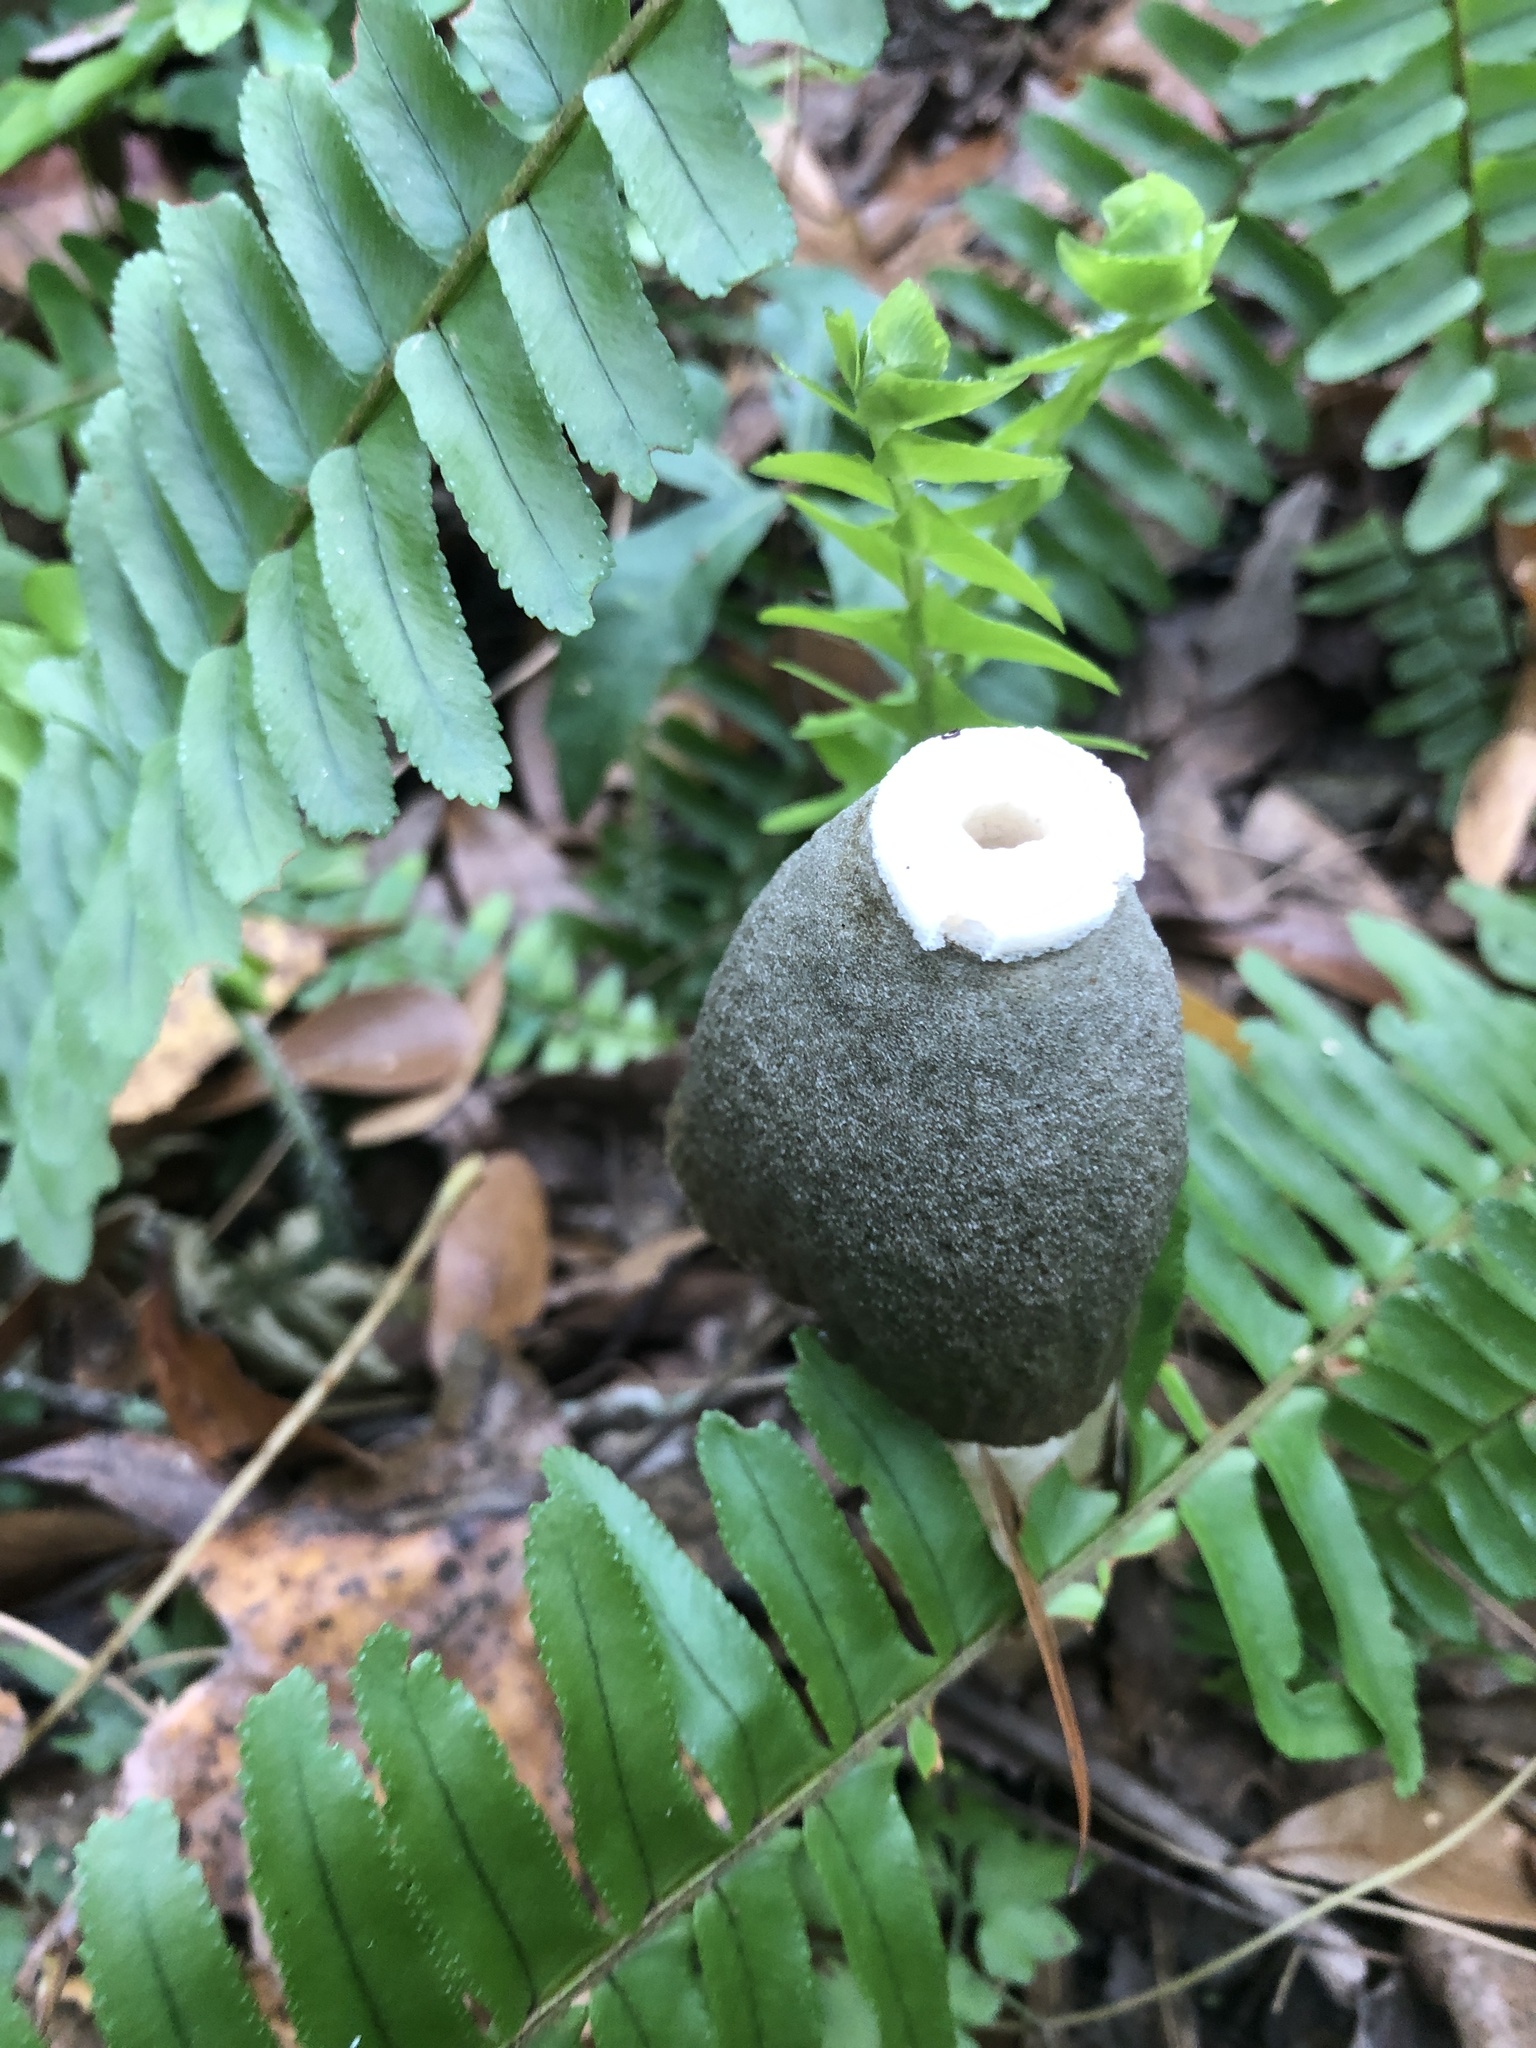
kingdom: Fungi
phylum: Basidiomycota
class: Agaricomycetes
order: Phallales
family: Phallaceae
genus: Phallus
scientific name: Phallus ravenelii
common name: Ravenel's stinkhorn
